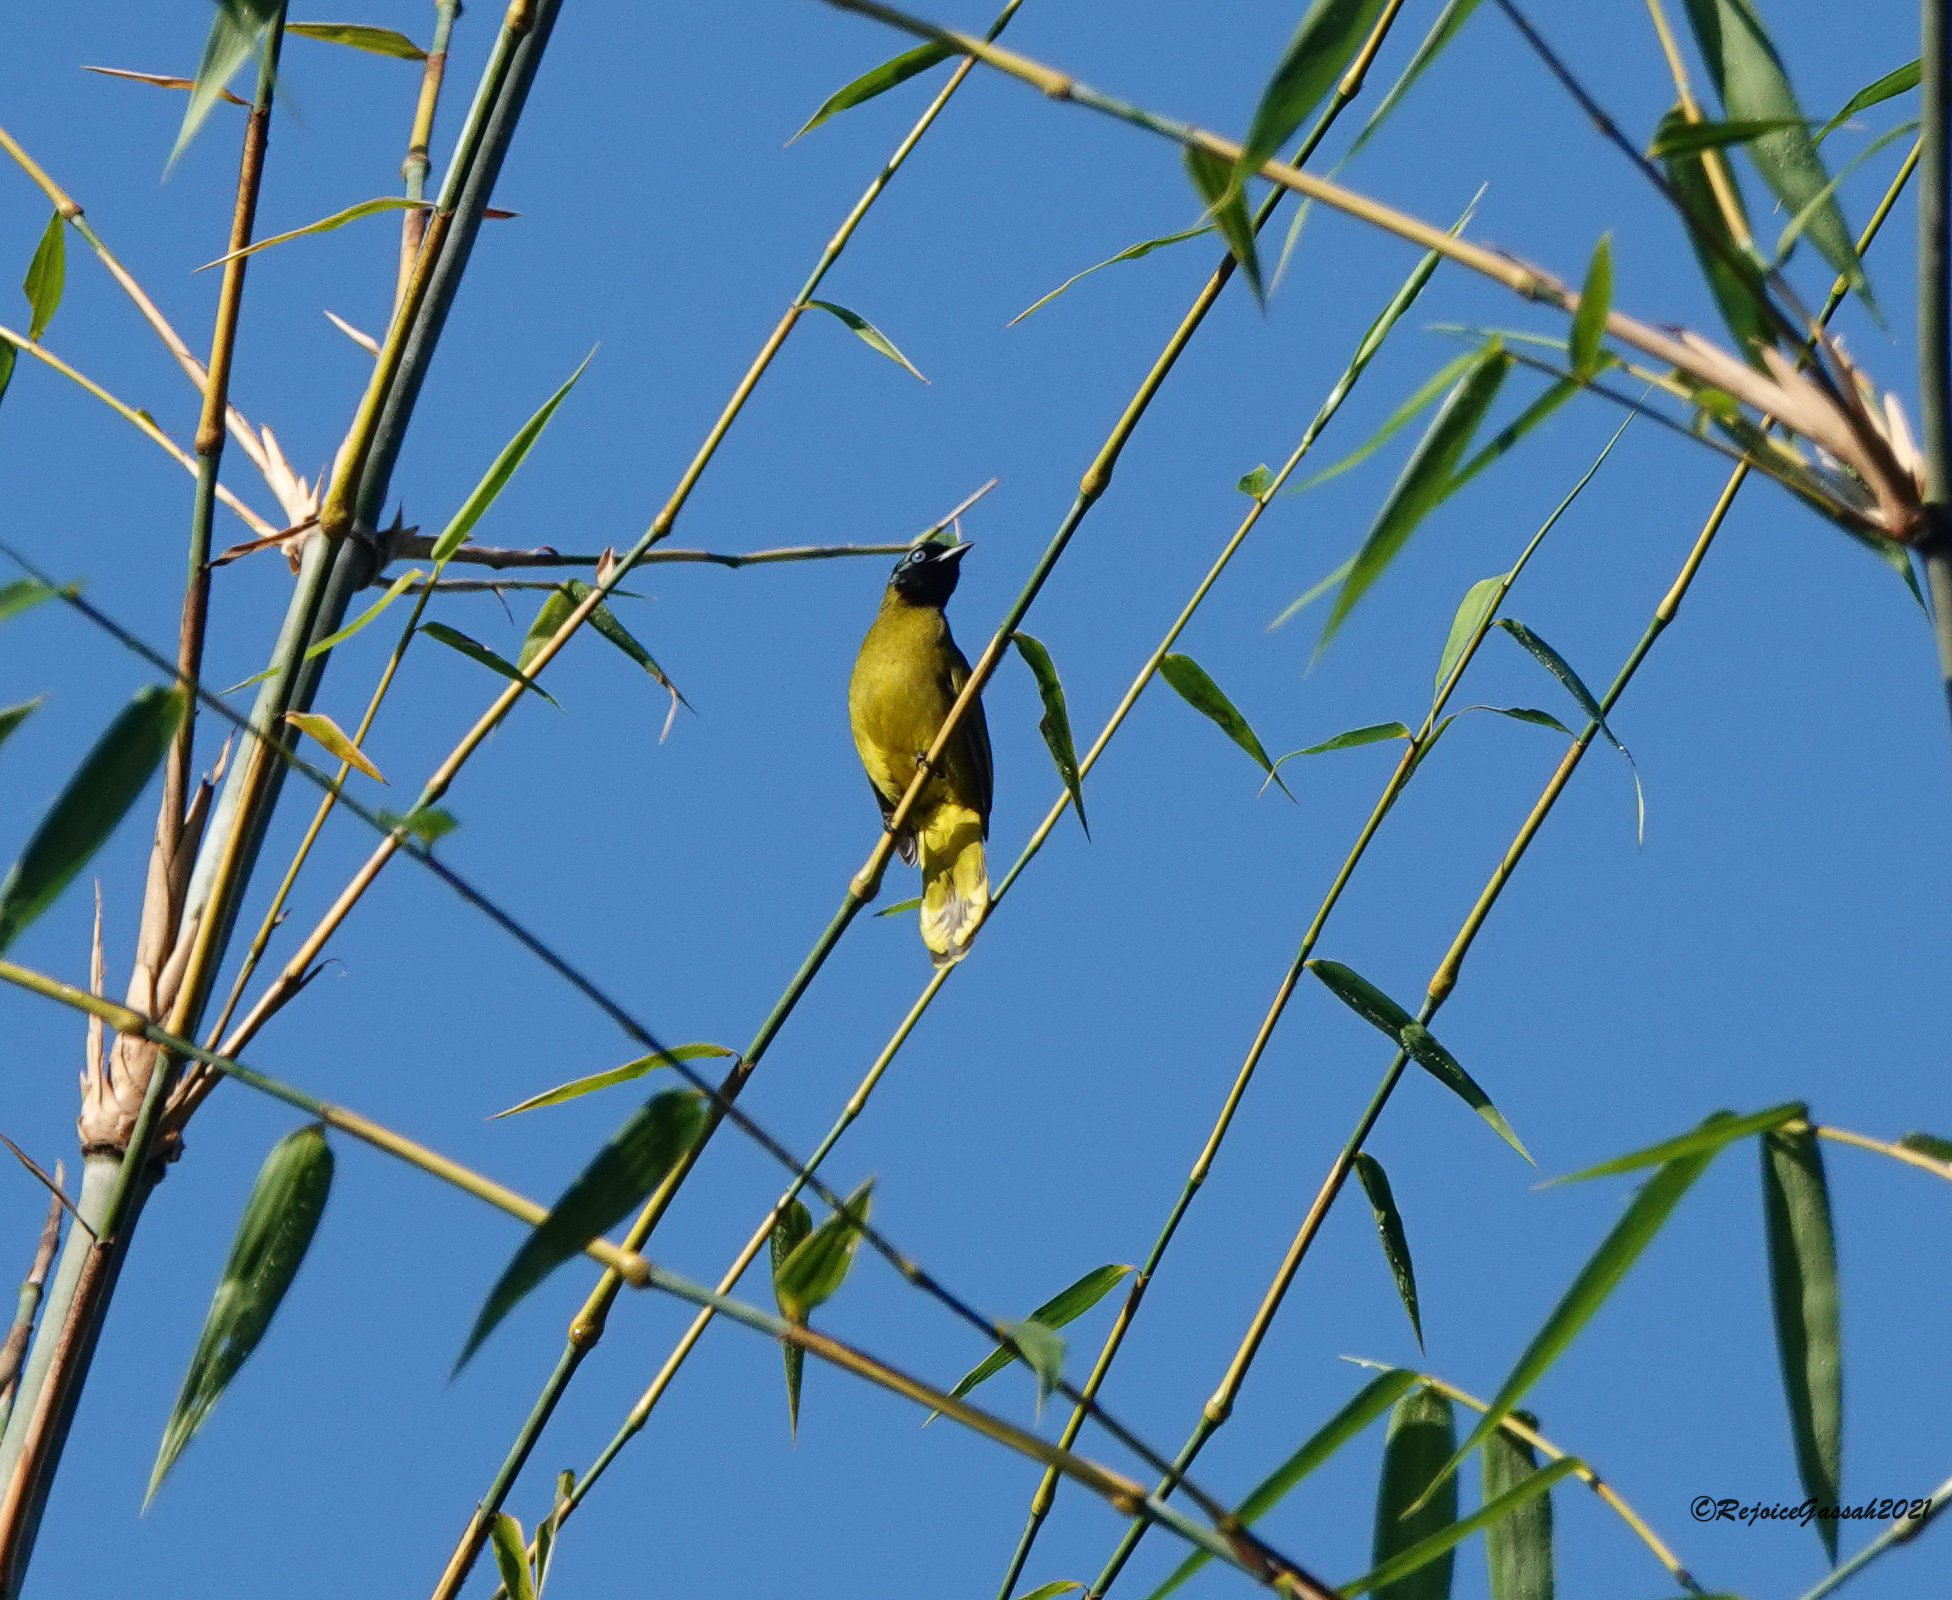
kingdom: Animalia
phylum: Chordata
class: Aves
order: Passeriformes
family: Pycnonotidae
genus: Microtarsus
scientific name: Microtarsus
